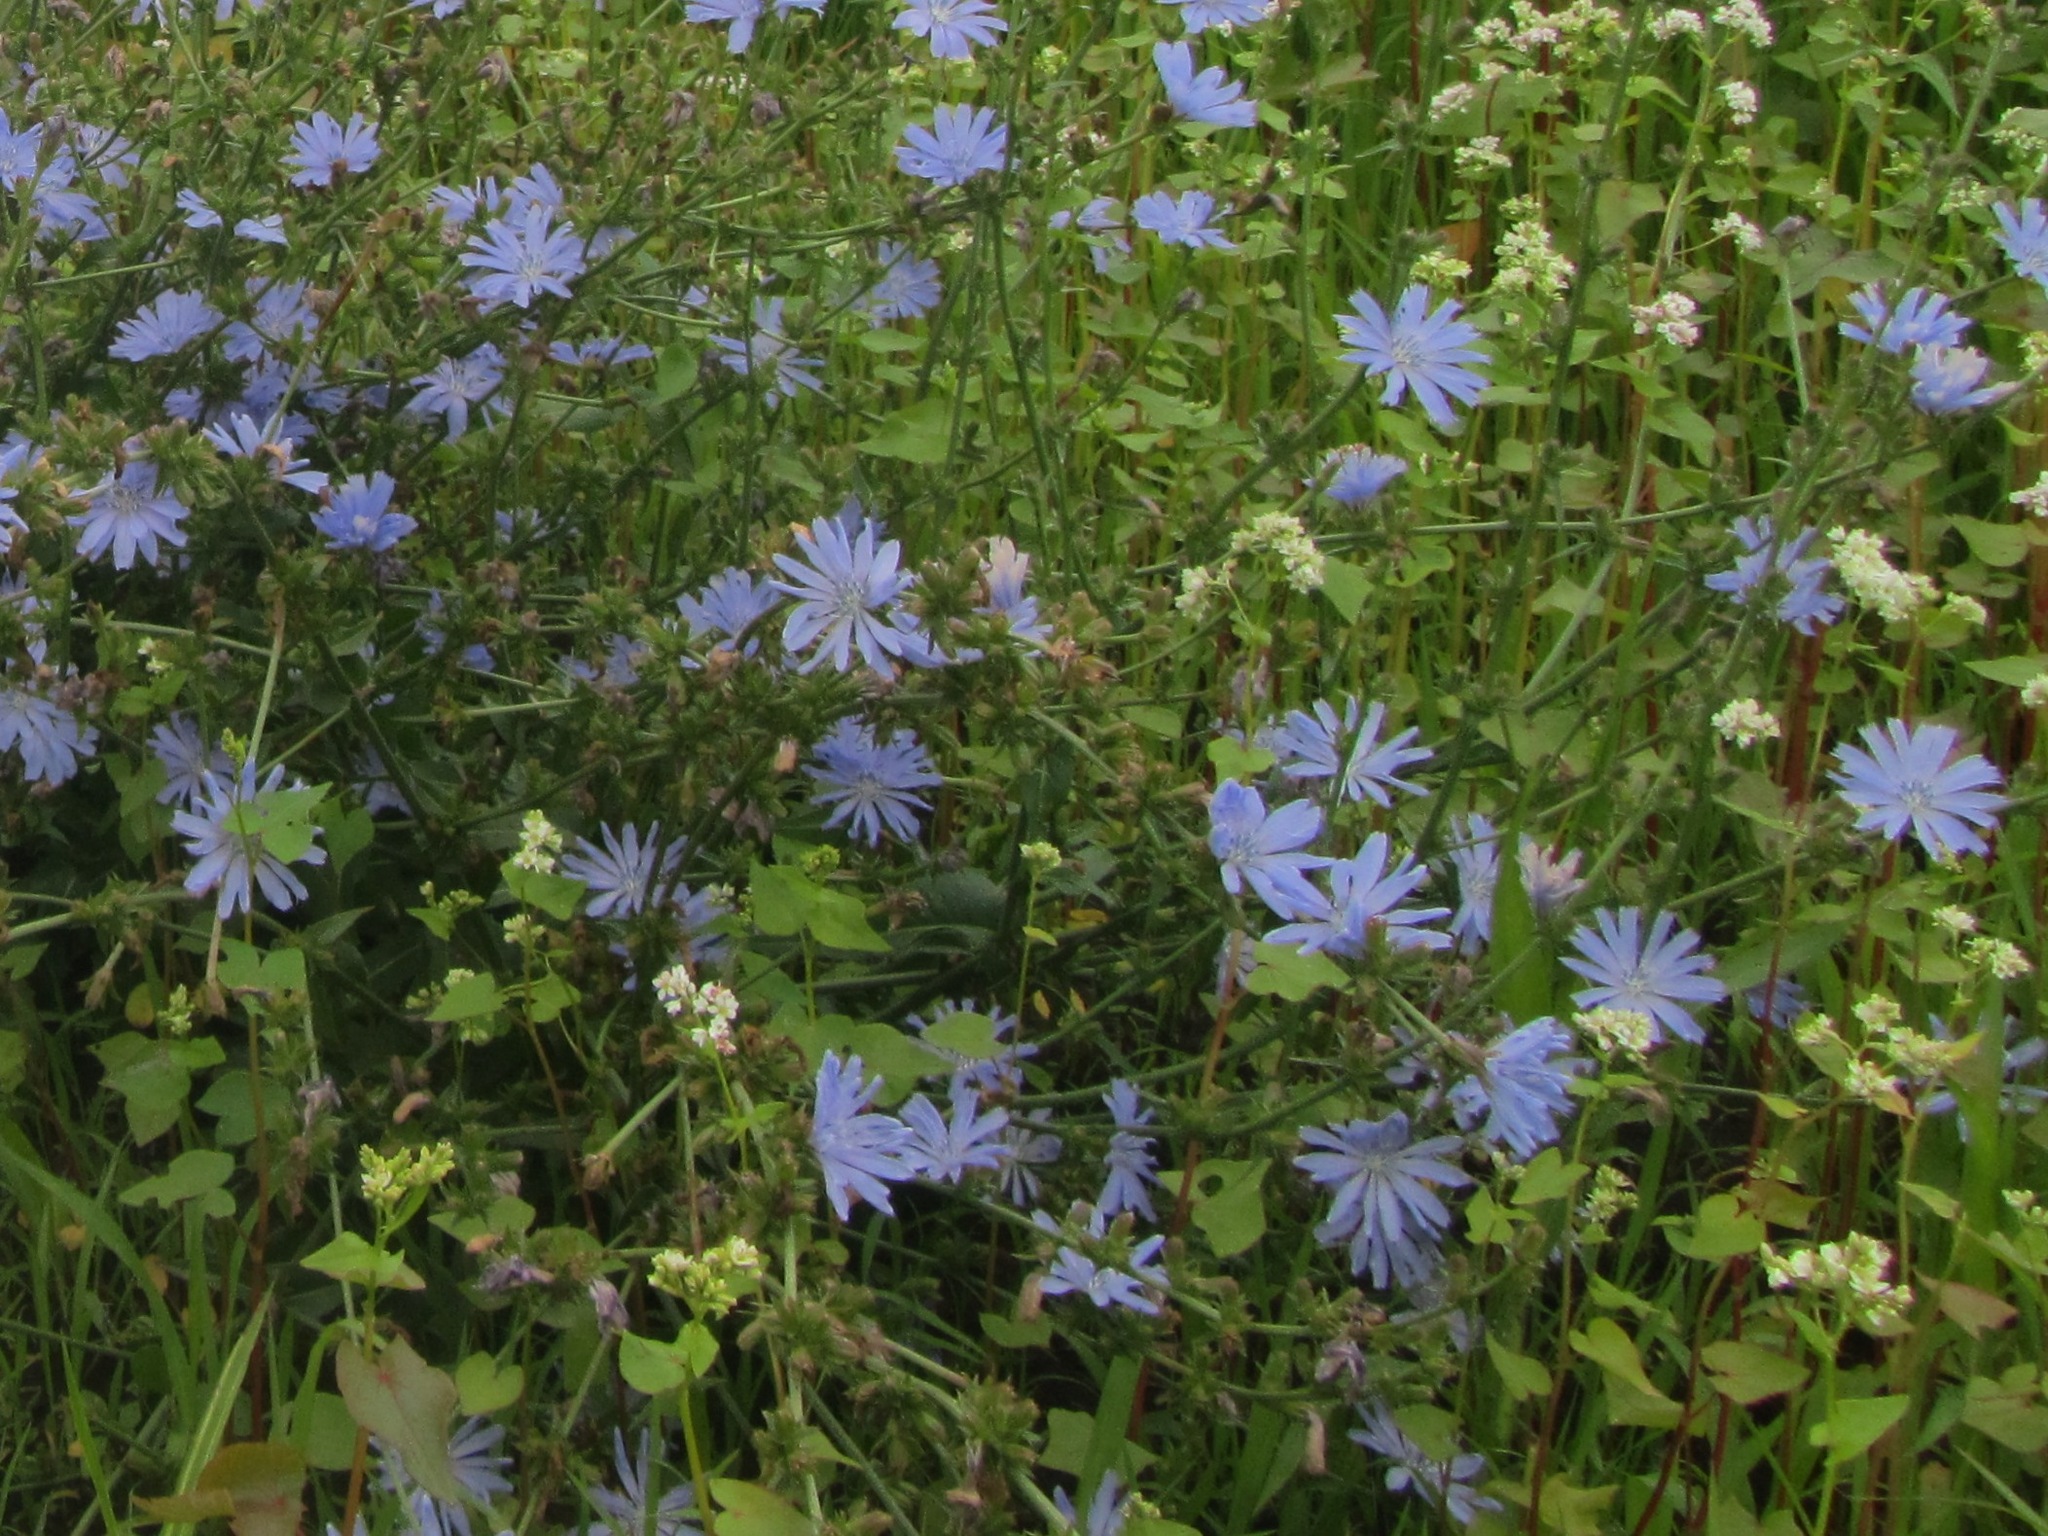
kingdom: Plantae
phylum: Tracheophyta
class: Magnoliopsida
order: Asterales
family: Asteraceae
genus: Cichorium
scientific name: Cichorium intybus
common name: Chicory
